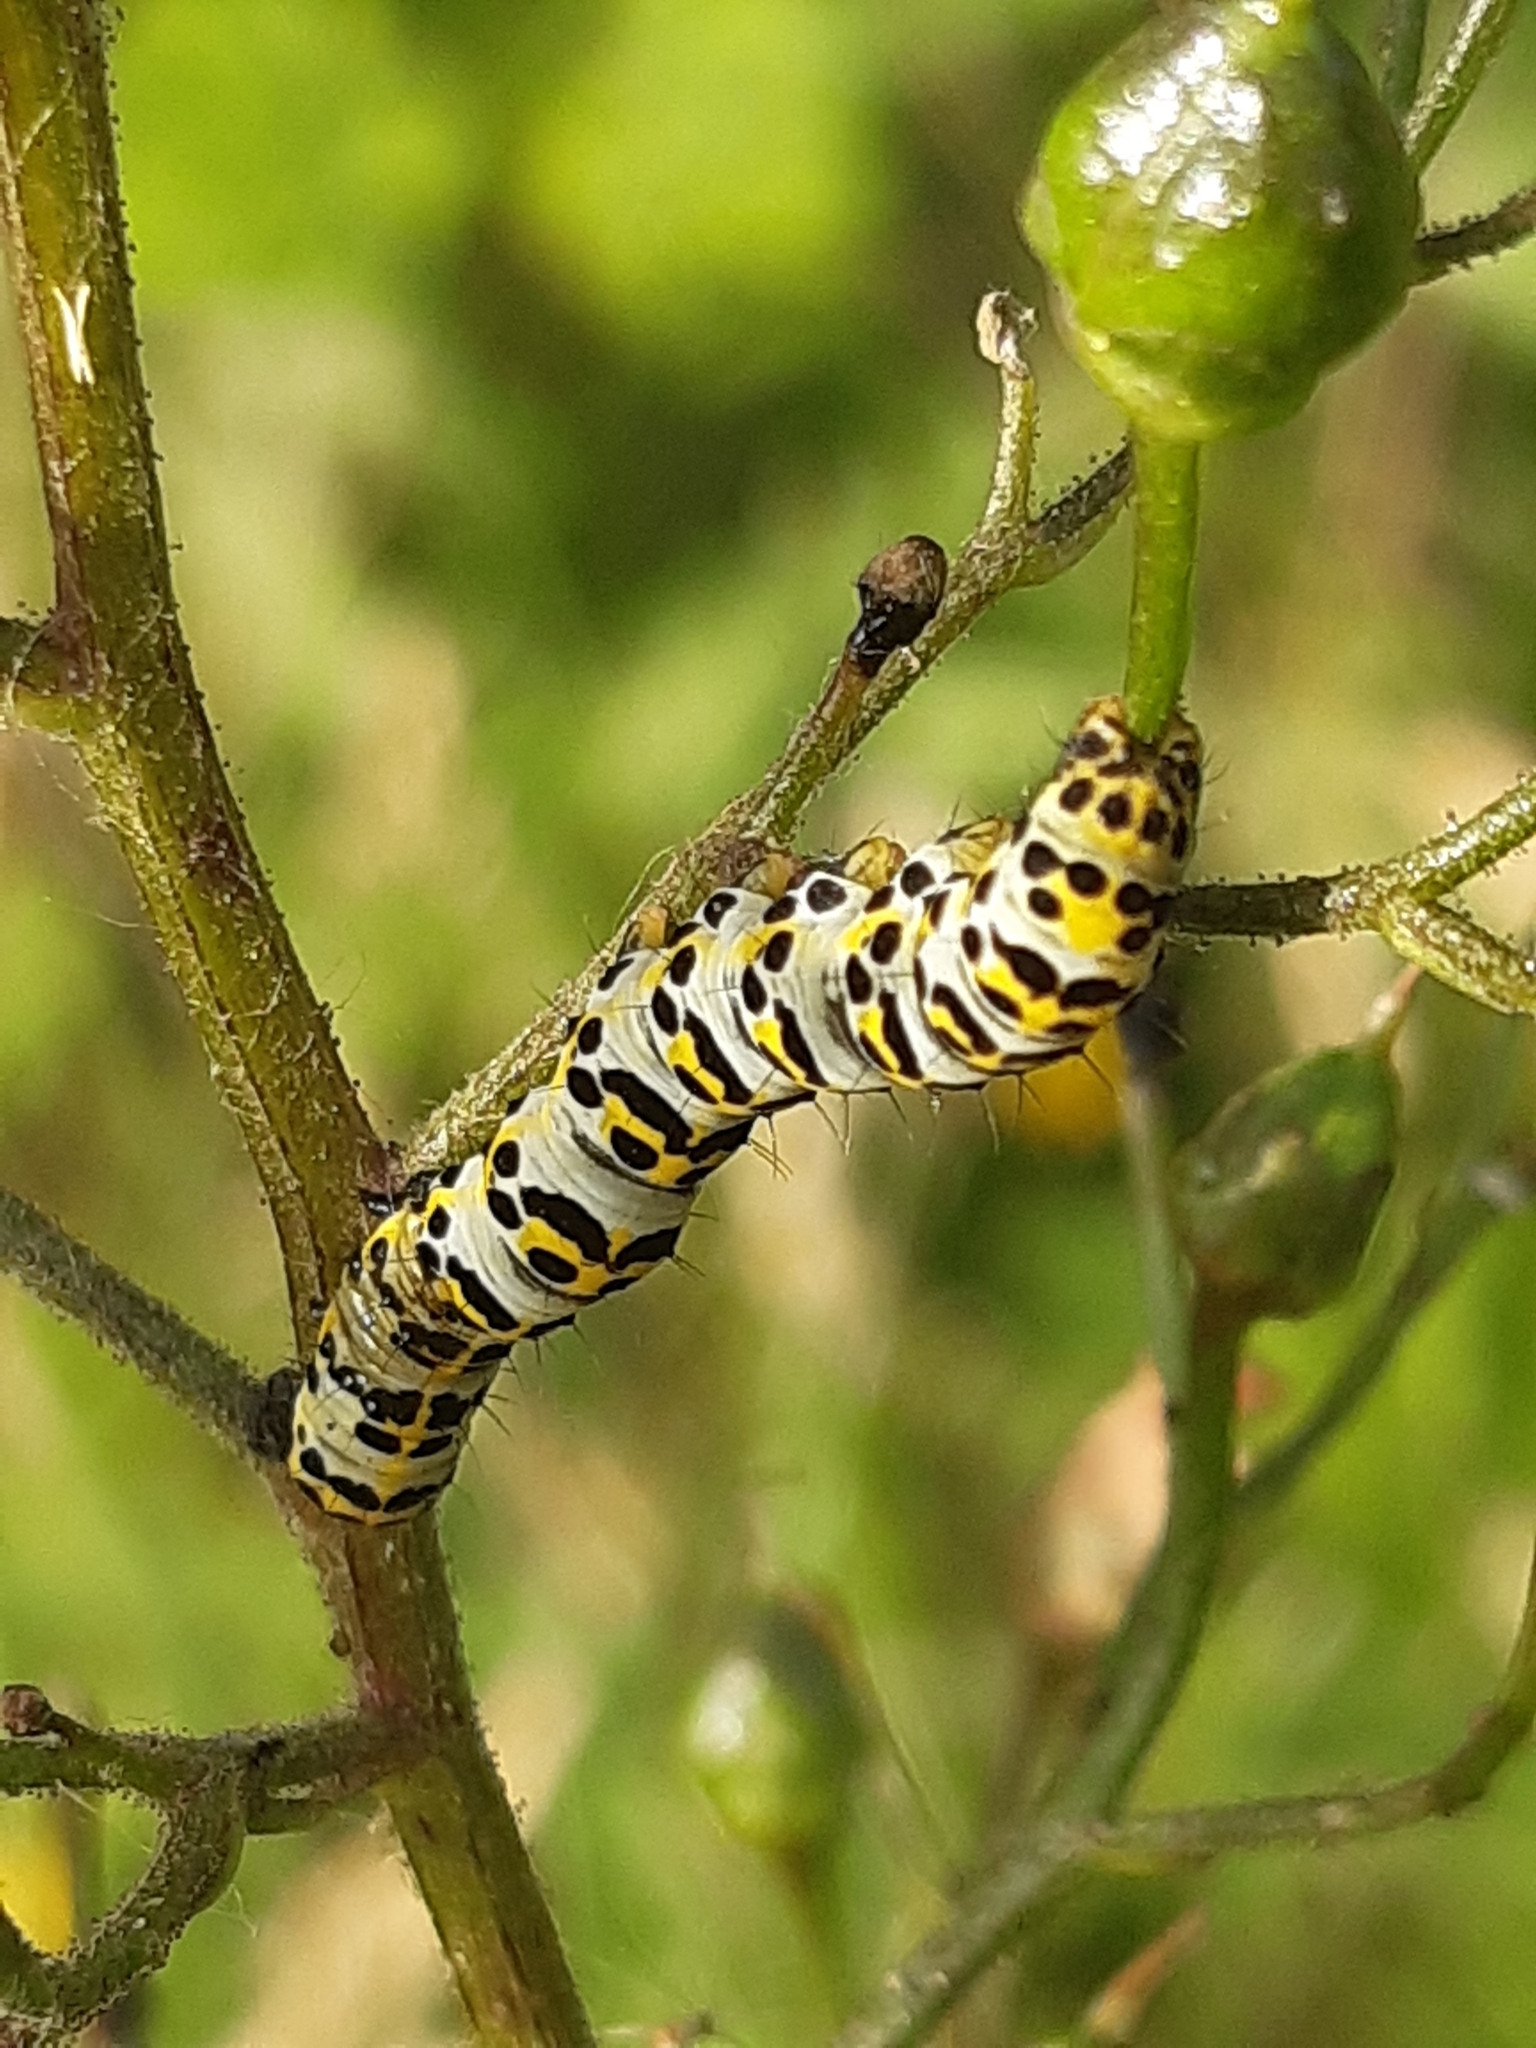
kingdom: Animalia
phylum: Arthropoda
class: Insecta
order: Lepidoptera
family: Noctuidae
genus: Shargacucullia
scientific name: Shargacucullia scrophulariae
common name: Water betony
